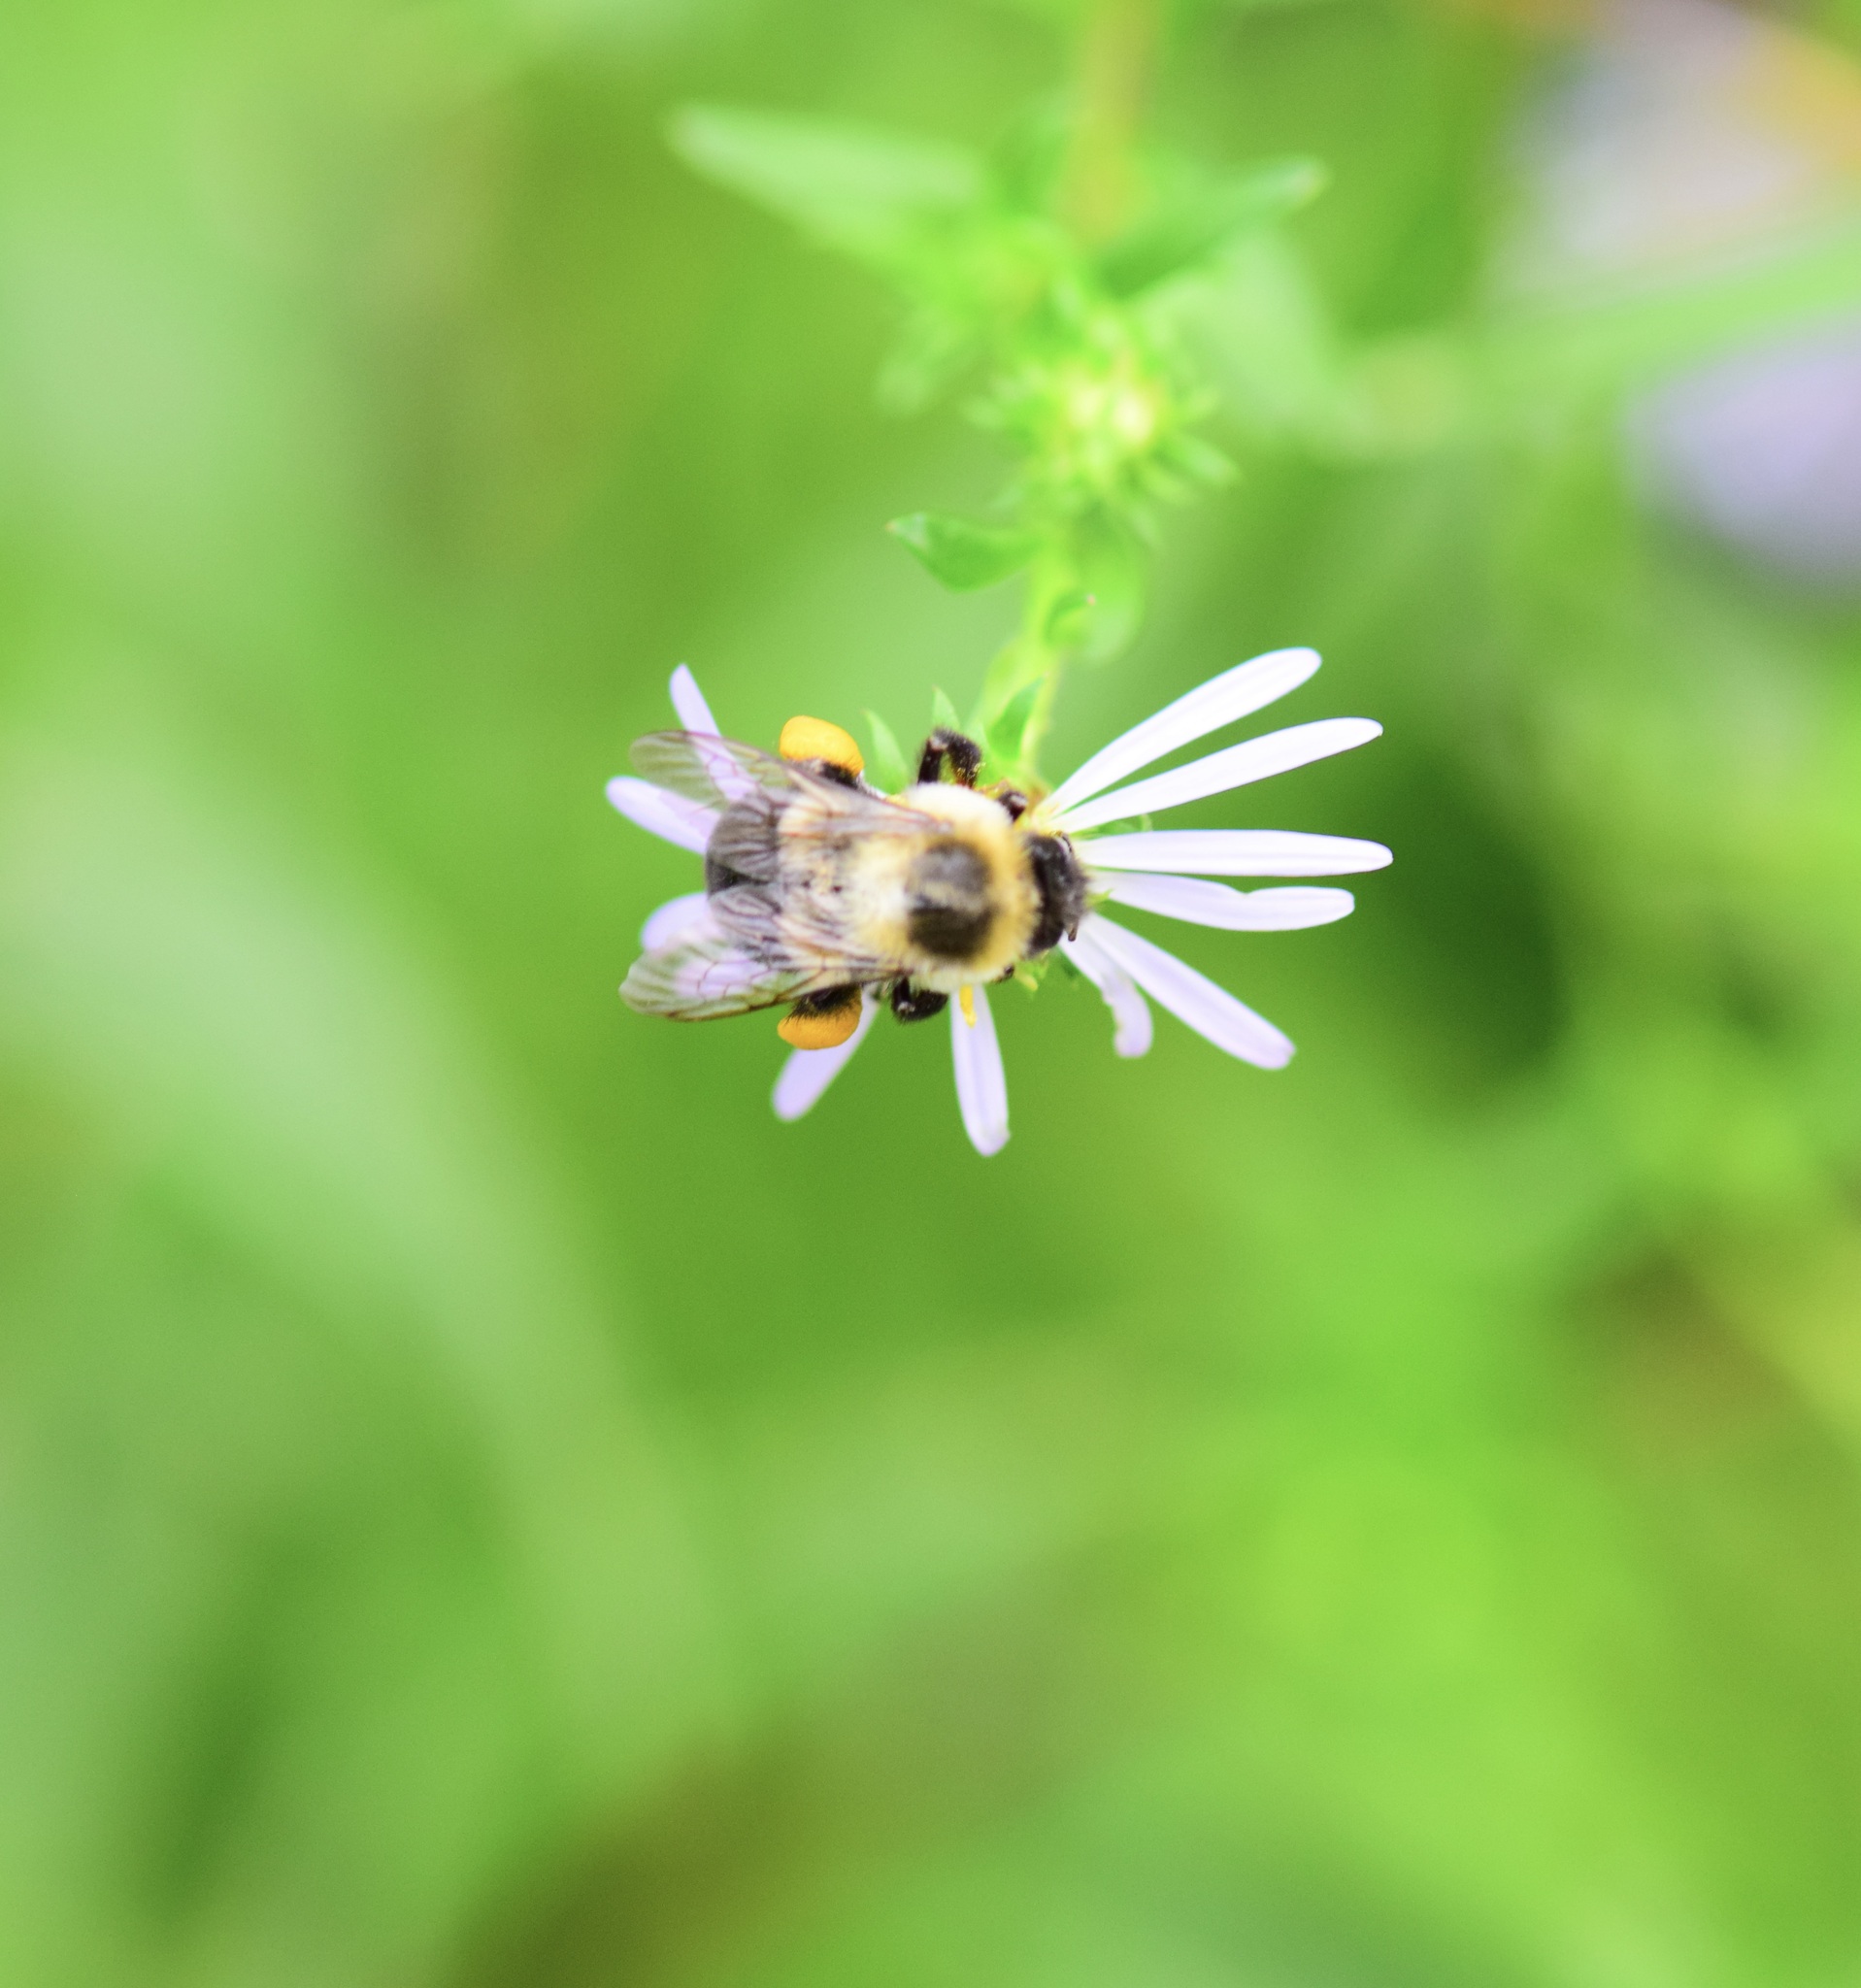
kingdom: Animalia
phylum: Arthropoda
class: Insecta
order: Hymenoptera
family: Apidae
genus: Bombus
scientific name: Bombus impatiens
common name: Common eastern bumble bee
